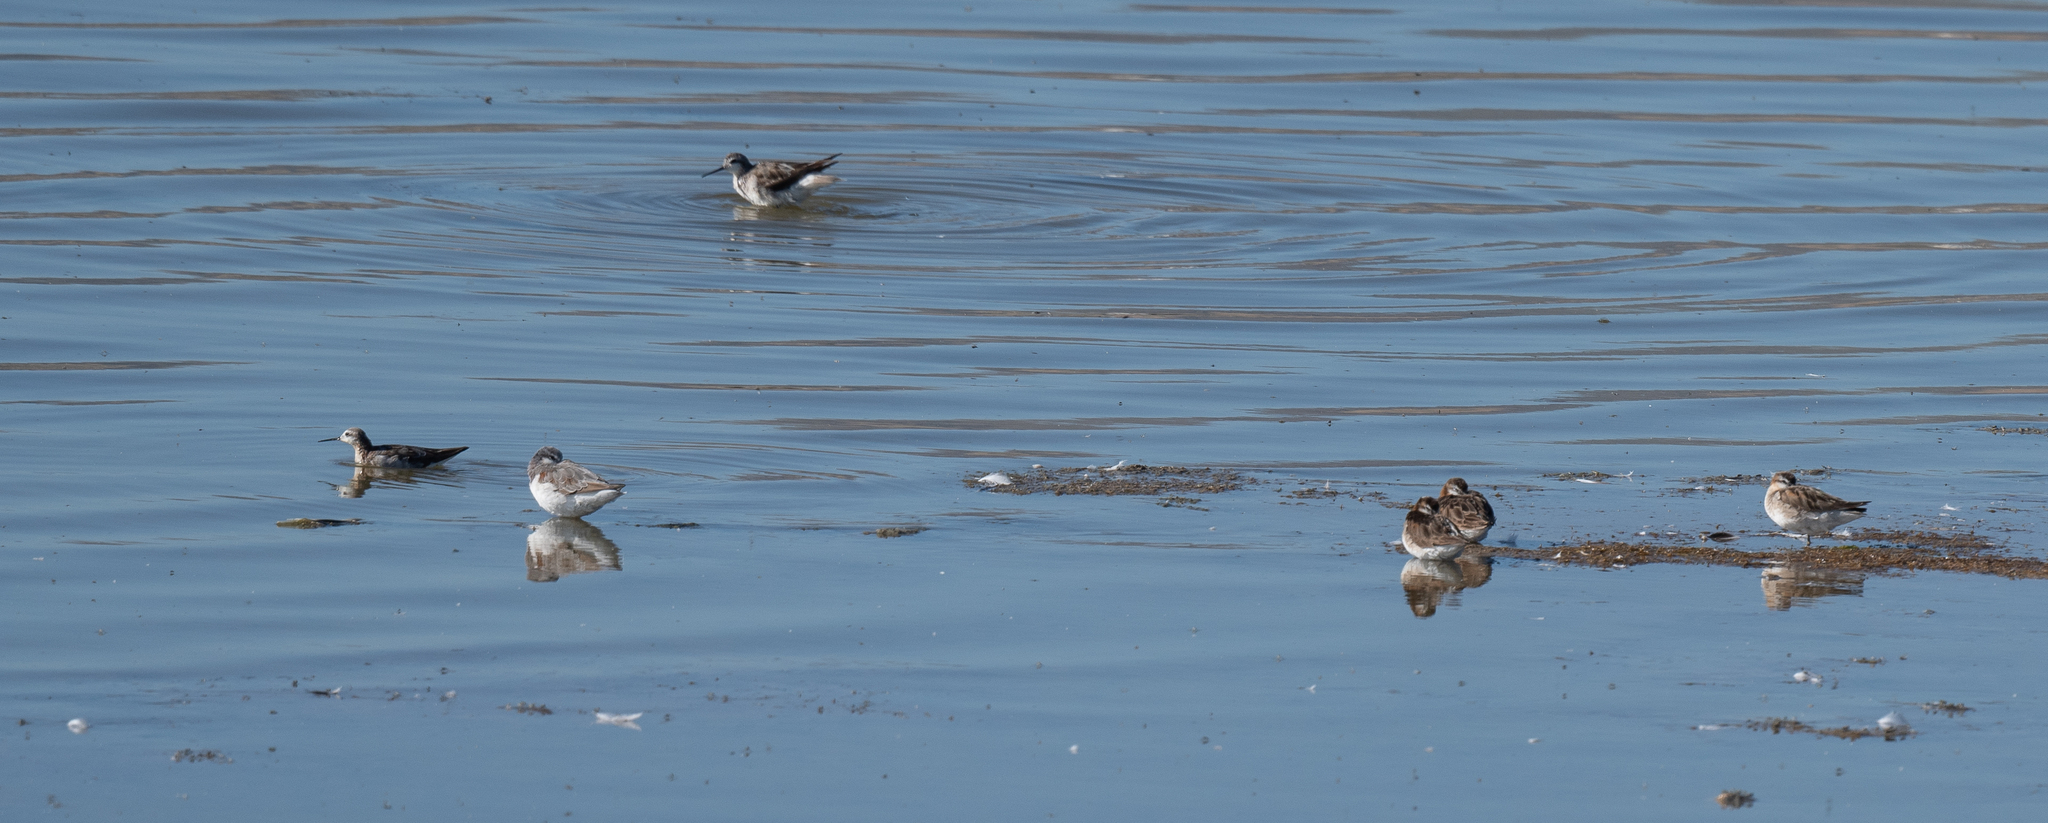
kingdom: Animalia
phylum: Chordata
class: Aves
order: Charadriiformes
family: Scolopacidae
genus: Phalaropus
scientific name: Phalaropus tricolor
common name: Wilson's phalarope
